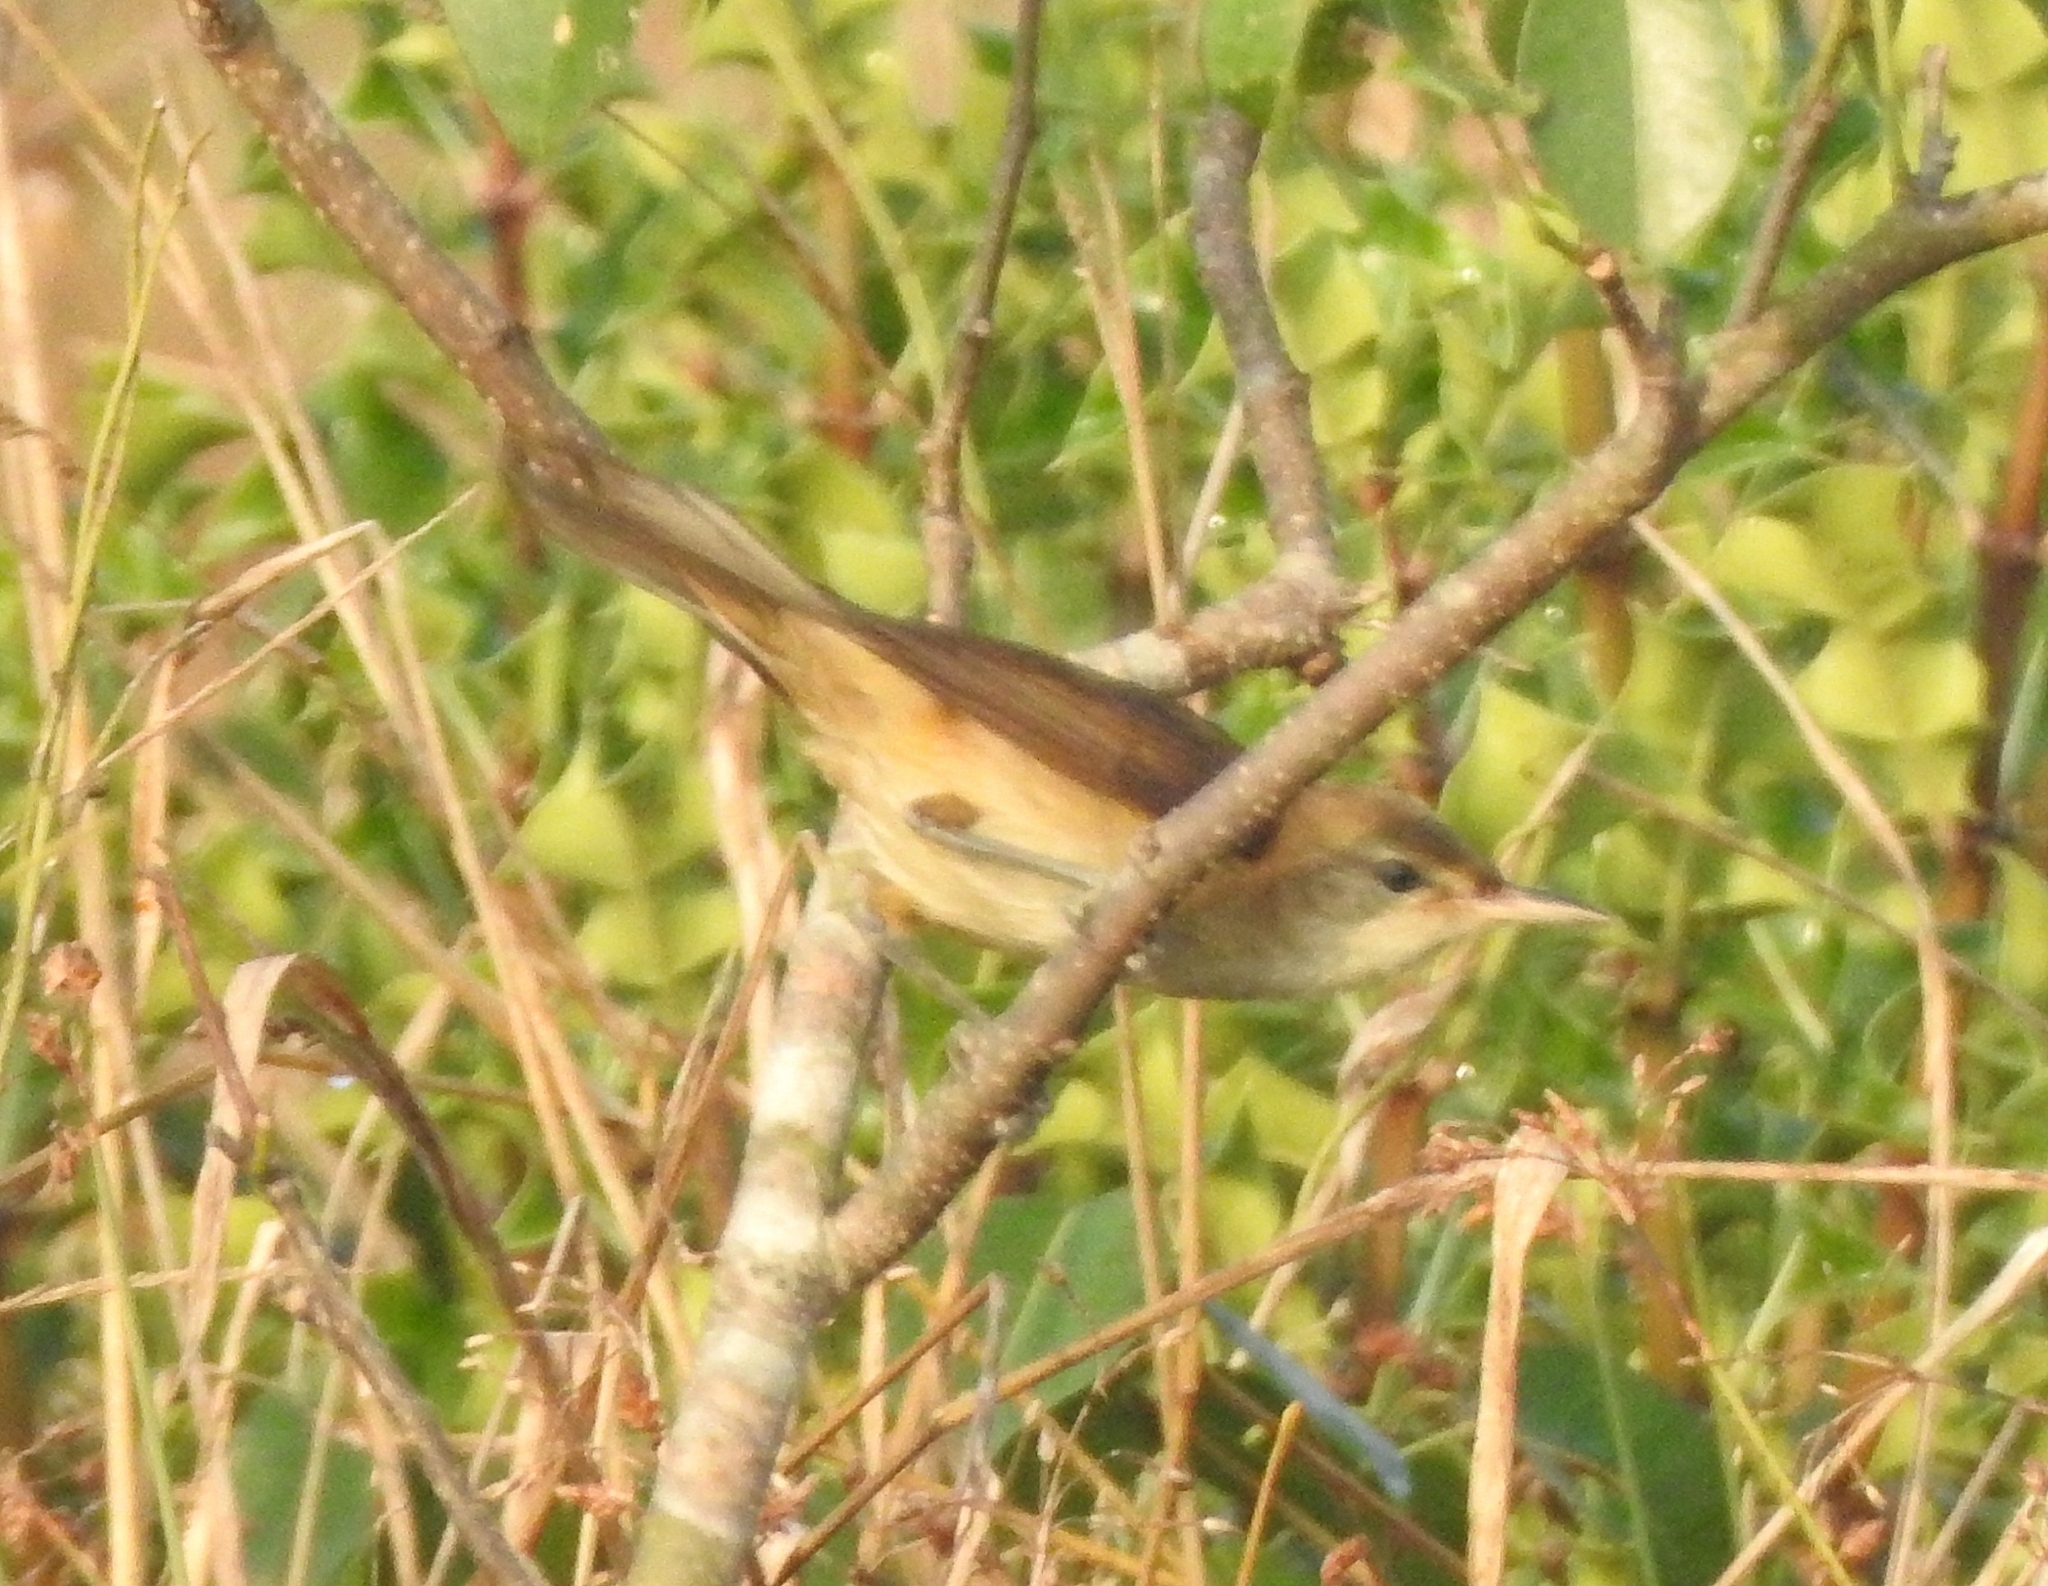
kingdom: Animalia
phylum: Chordata
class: Aves
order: Passeriformes
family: Acrocephalidae
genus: Acrocephalus
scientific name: Acrocephalus dumetorum
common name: Blyth's reed warbler
